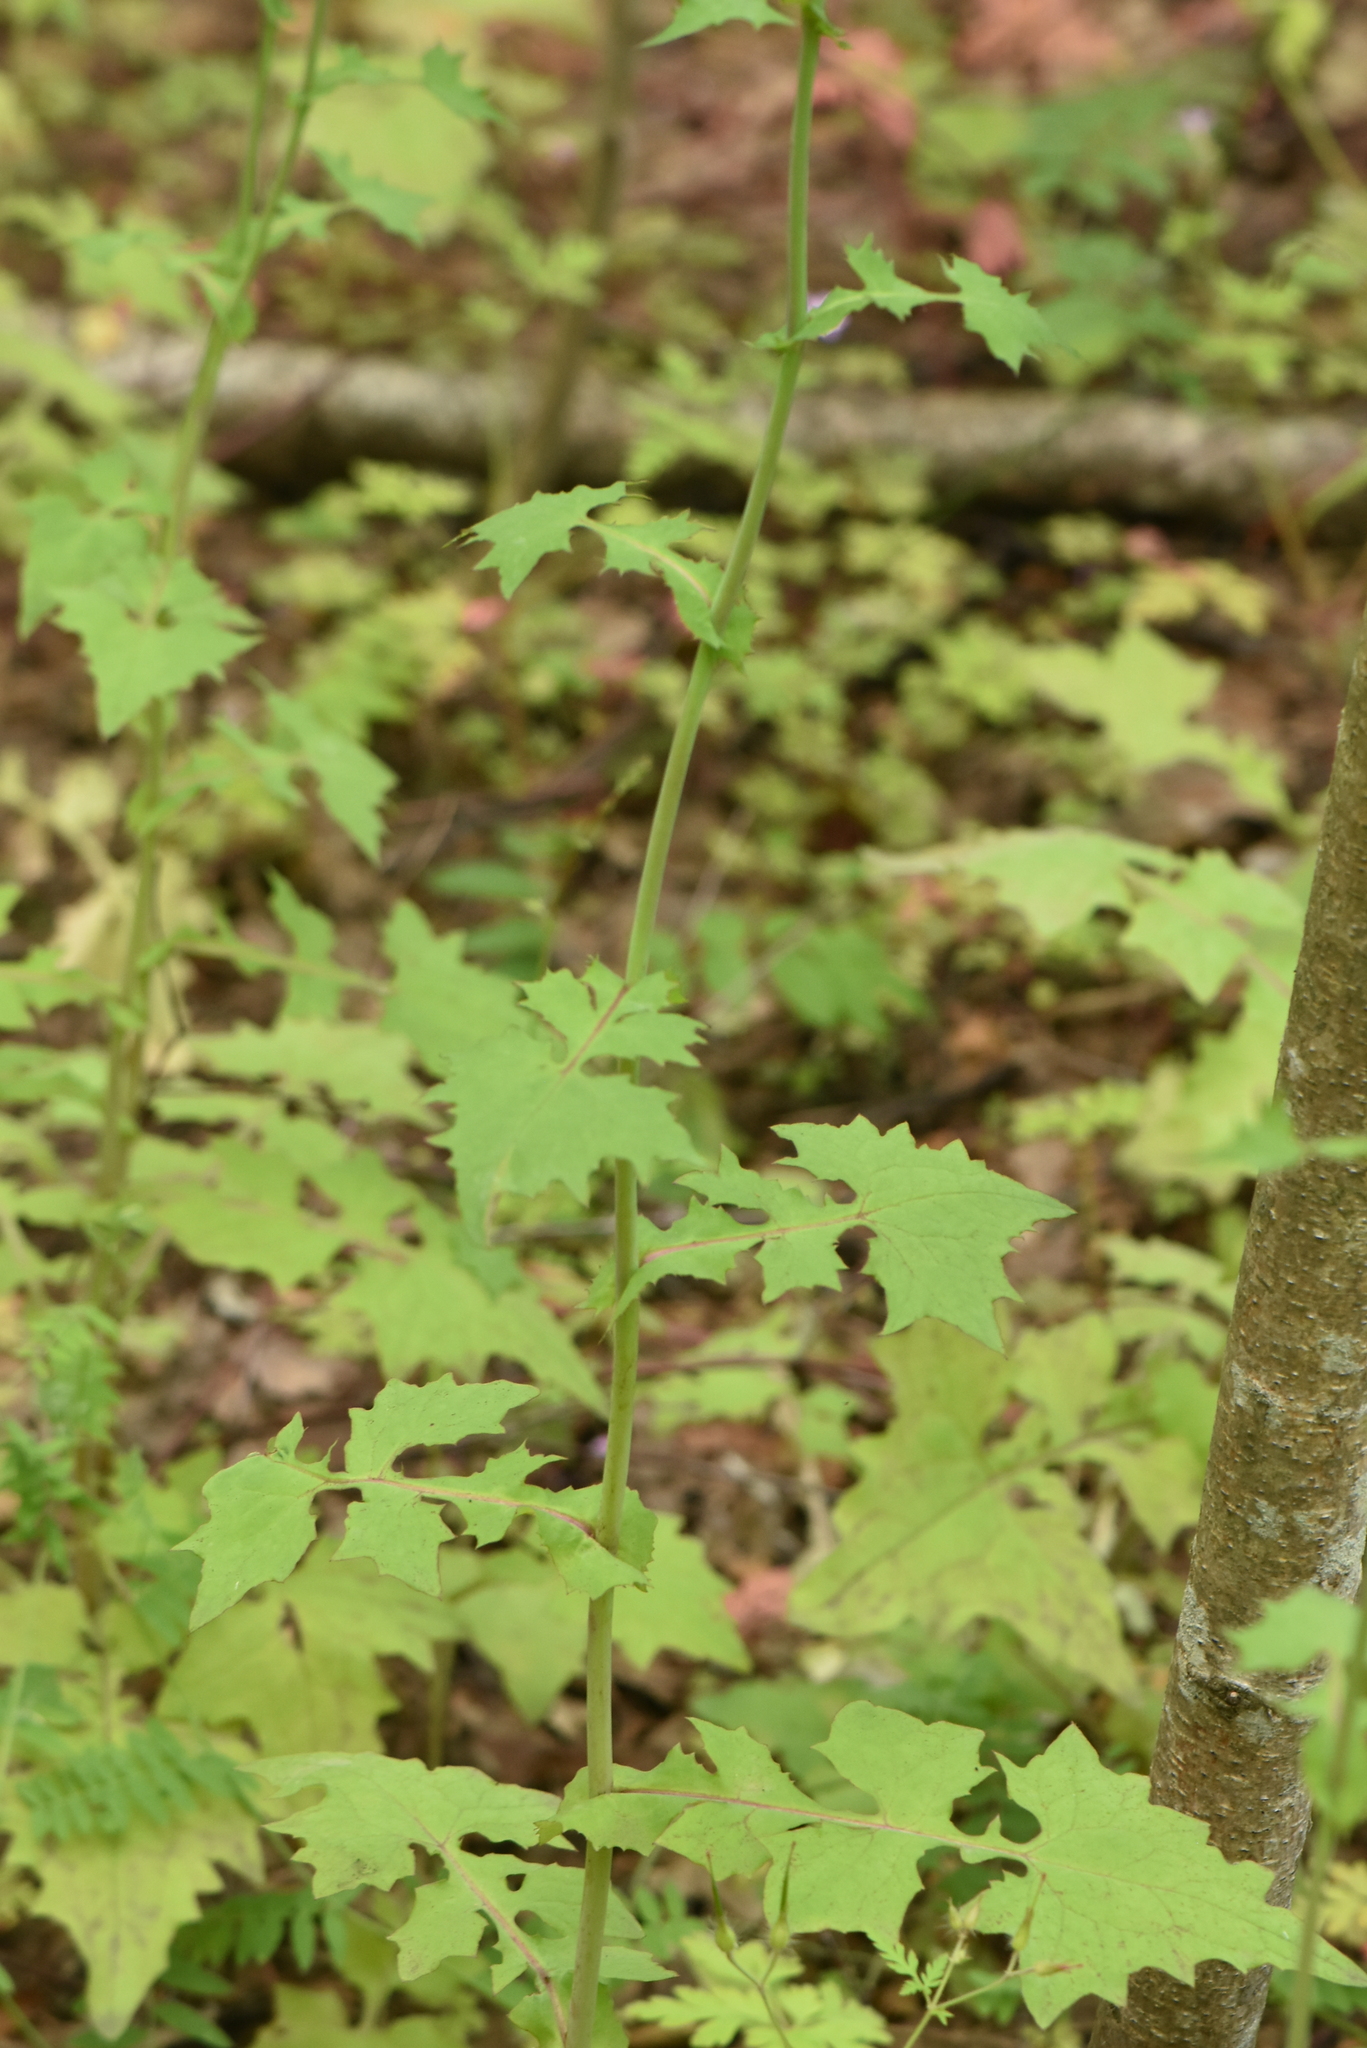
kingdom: Plantae
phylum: Tracheophyta
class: Magnoliopsida
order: Asterales
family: Asteraceae
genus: Mycelis
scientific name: Mycelis muralis
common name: Wall lettuce
